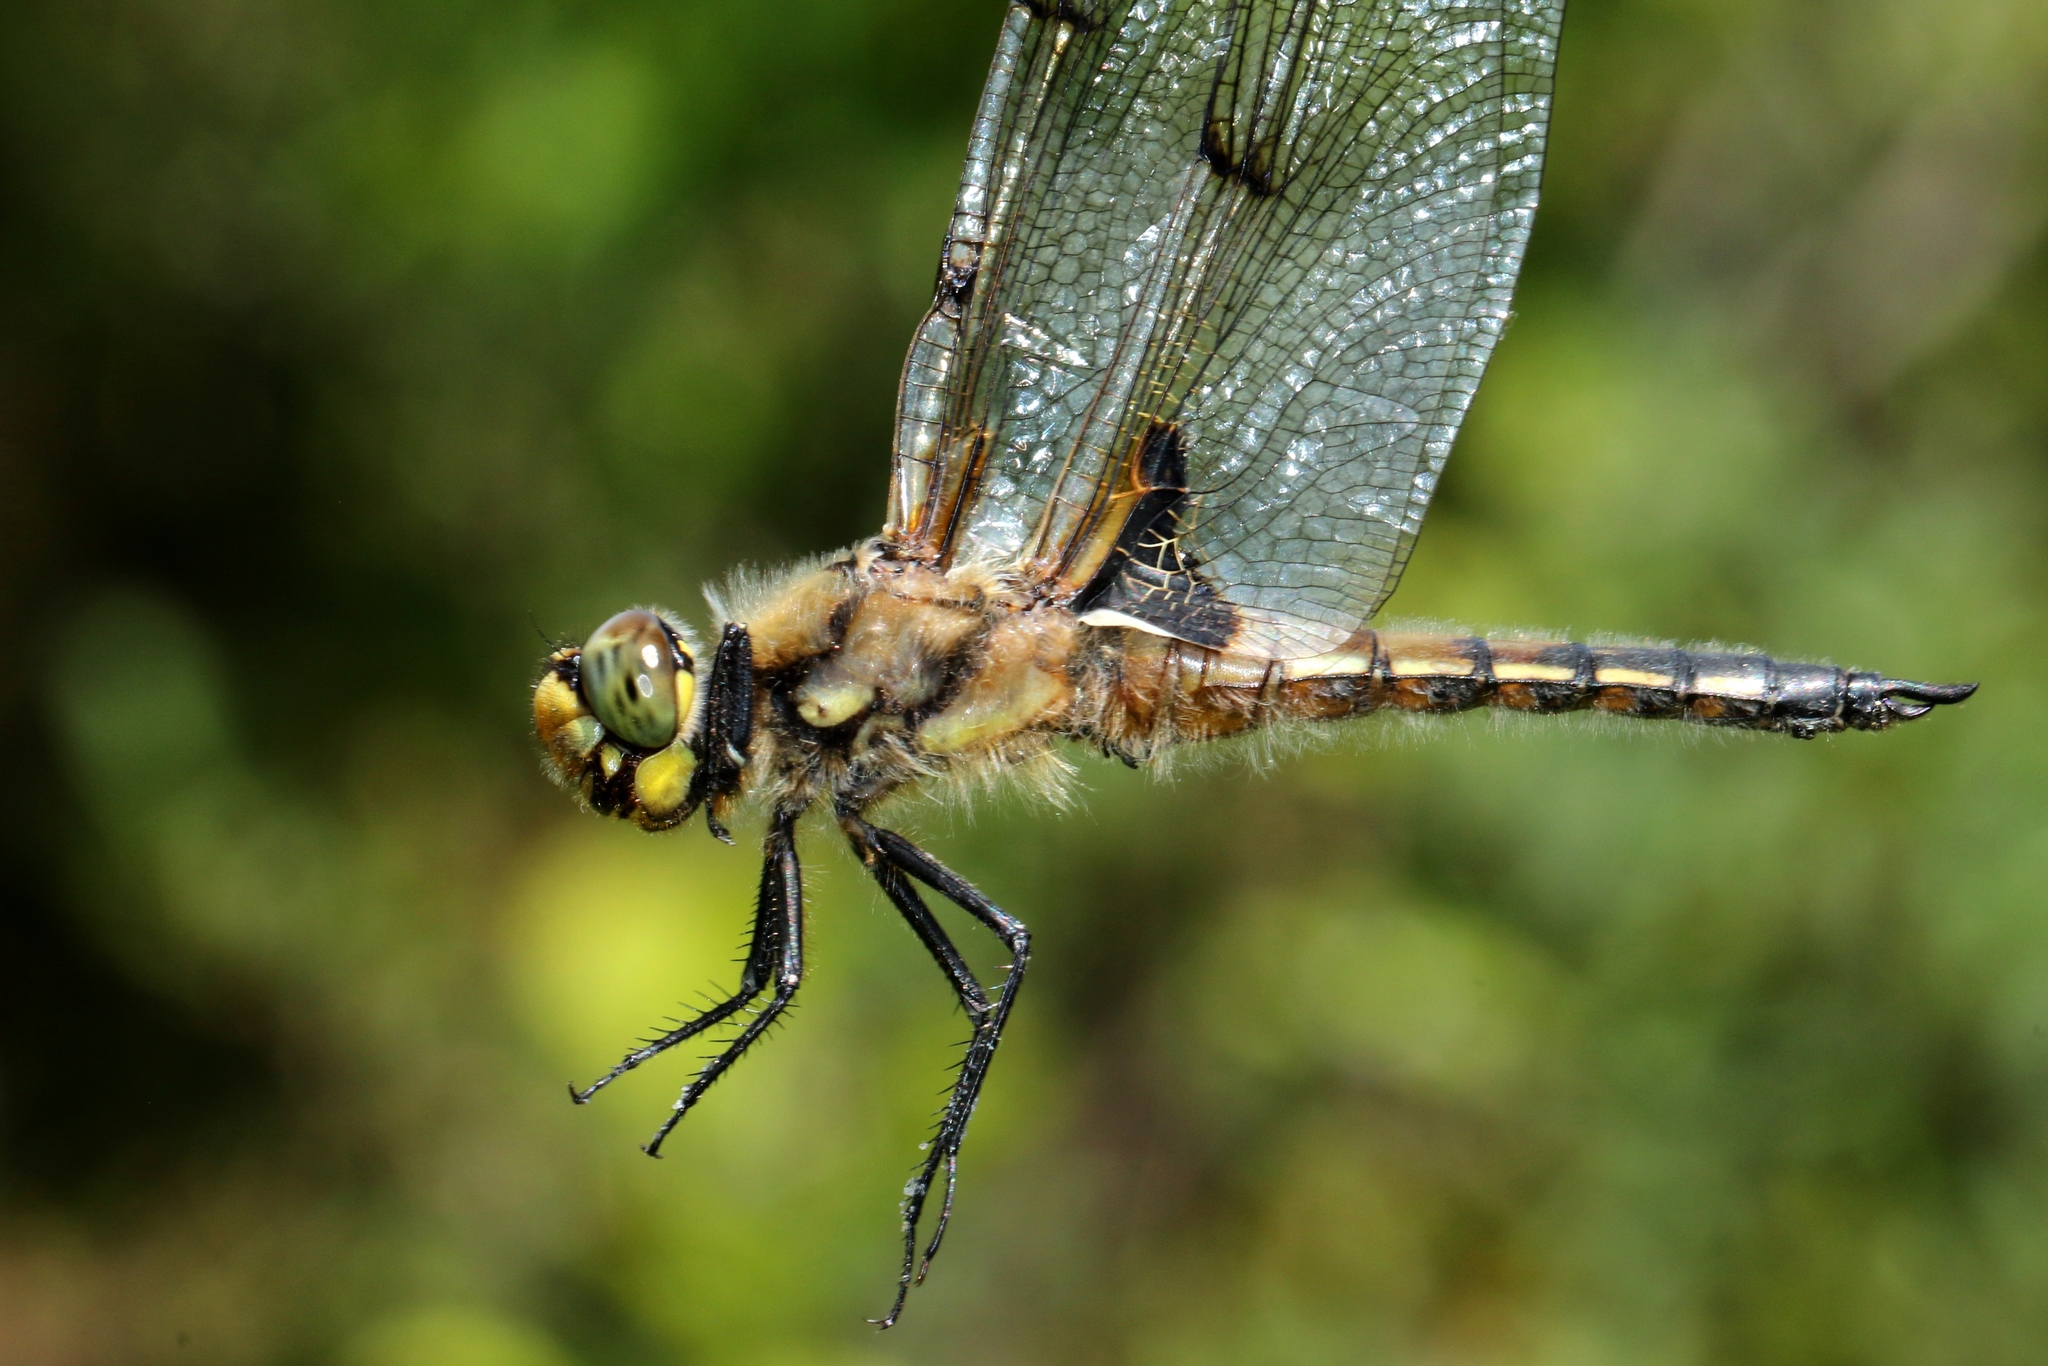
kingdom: Animalia
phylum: Arthropoda
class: Insecta
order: Odonata
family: Libellulidae
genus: Libellula
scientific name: Libellula quadrimaculata
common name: Four-spotted chaser
